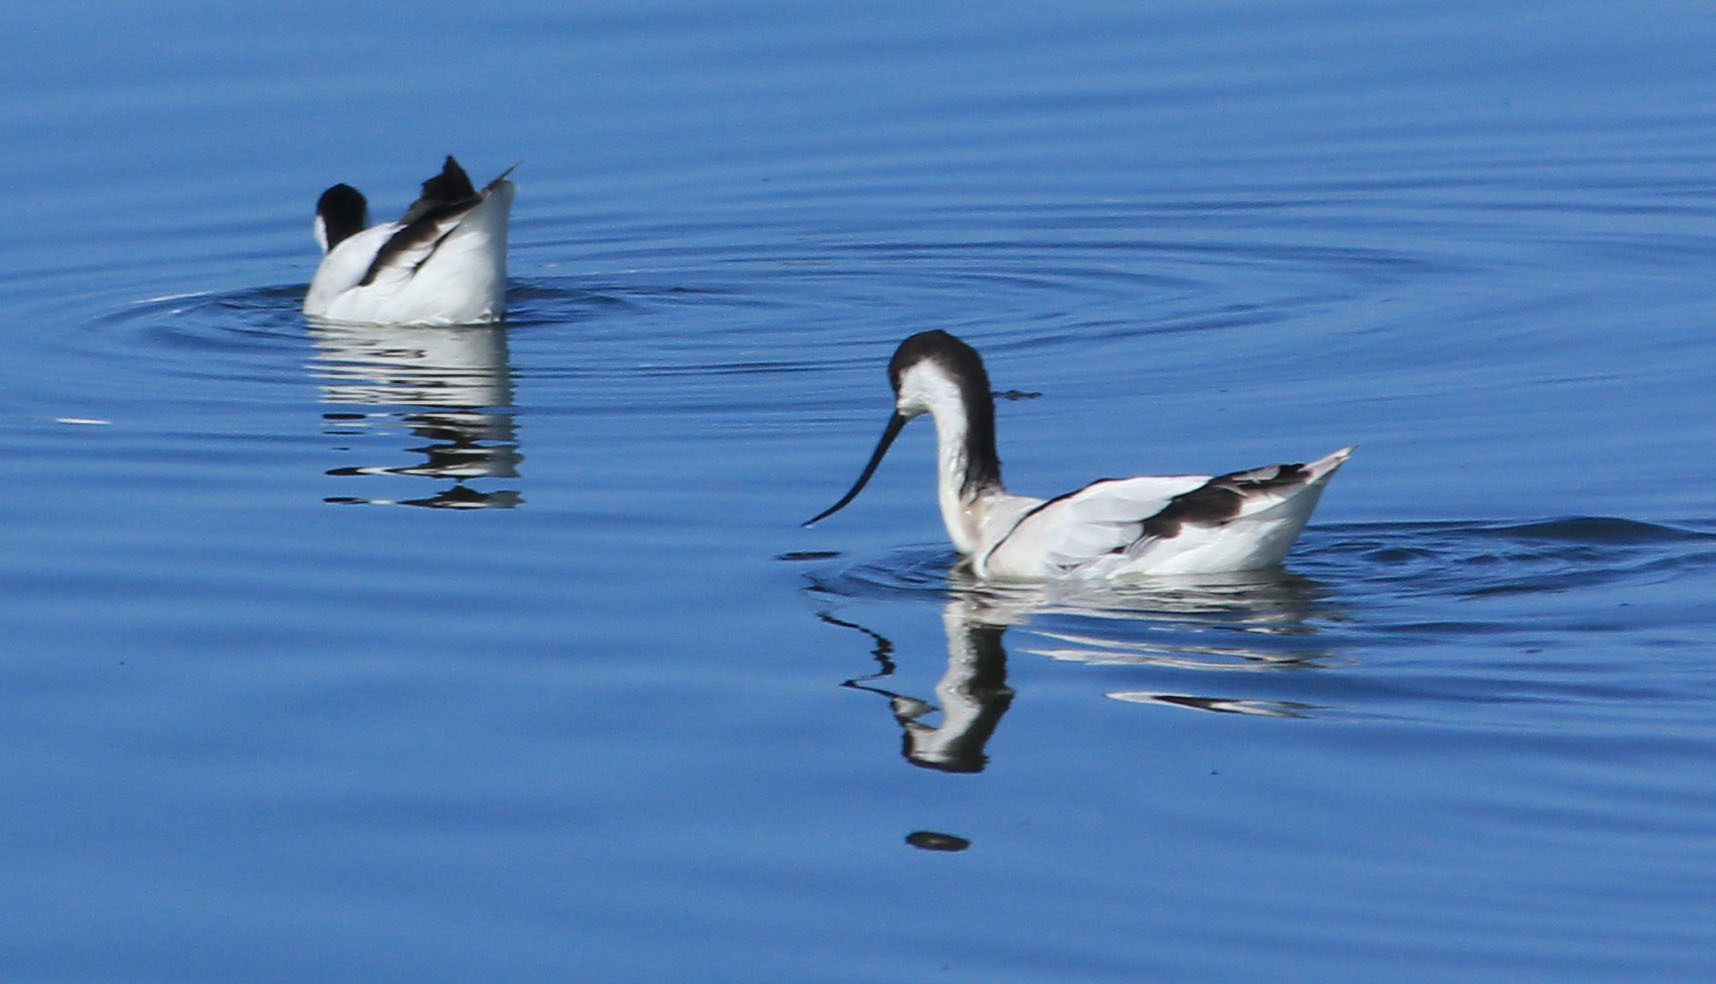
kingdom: Animalia
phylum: Chordata
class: Aves
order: Charadriiformes
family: Recurvirostridae
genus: Recurvirostra
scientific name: Recurvirostra avosetta
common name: Pied avocet
